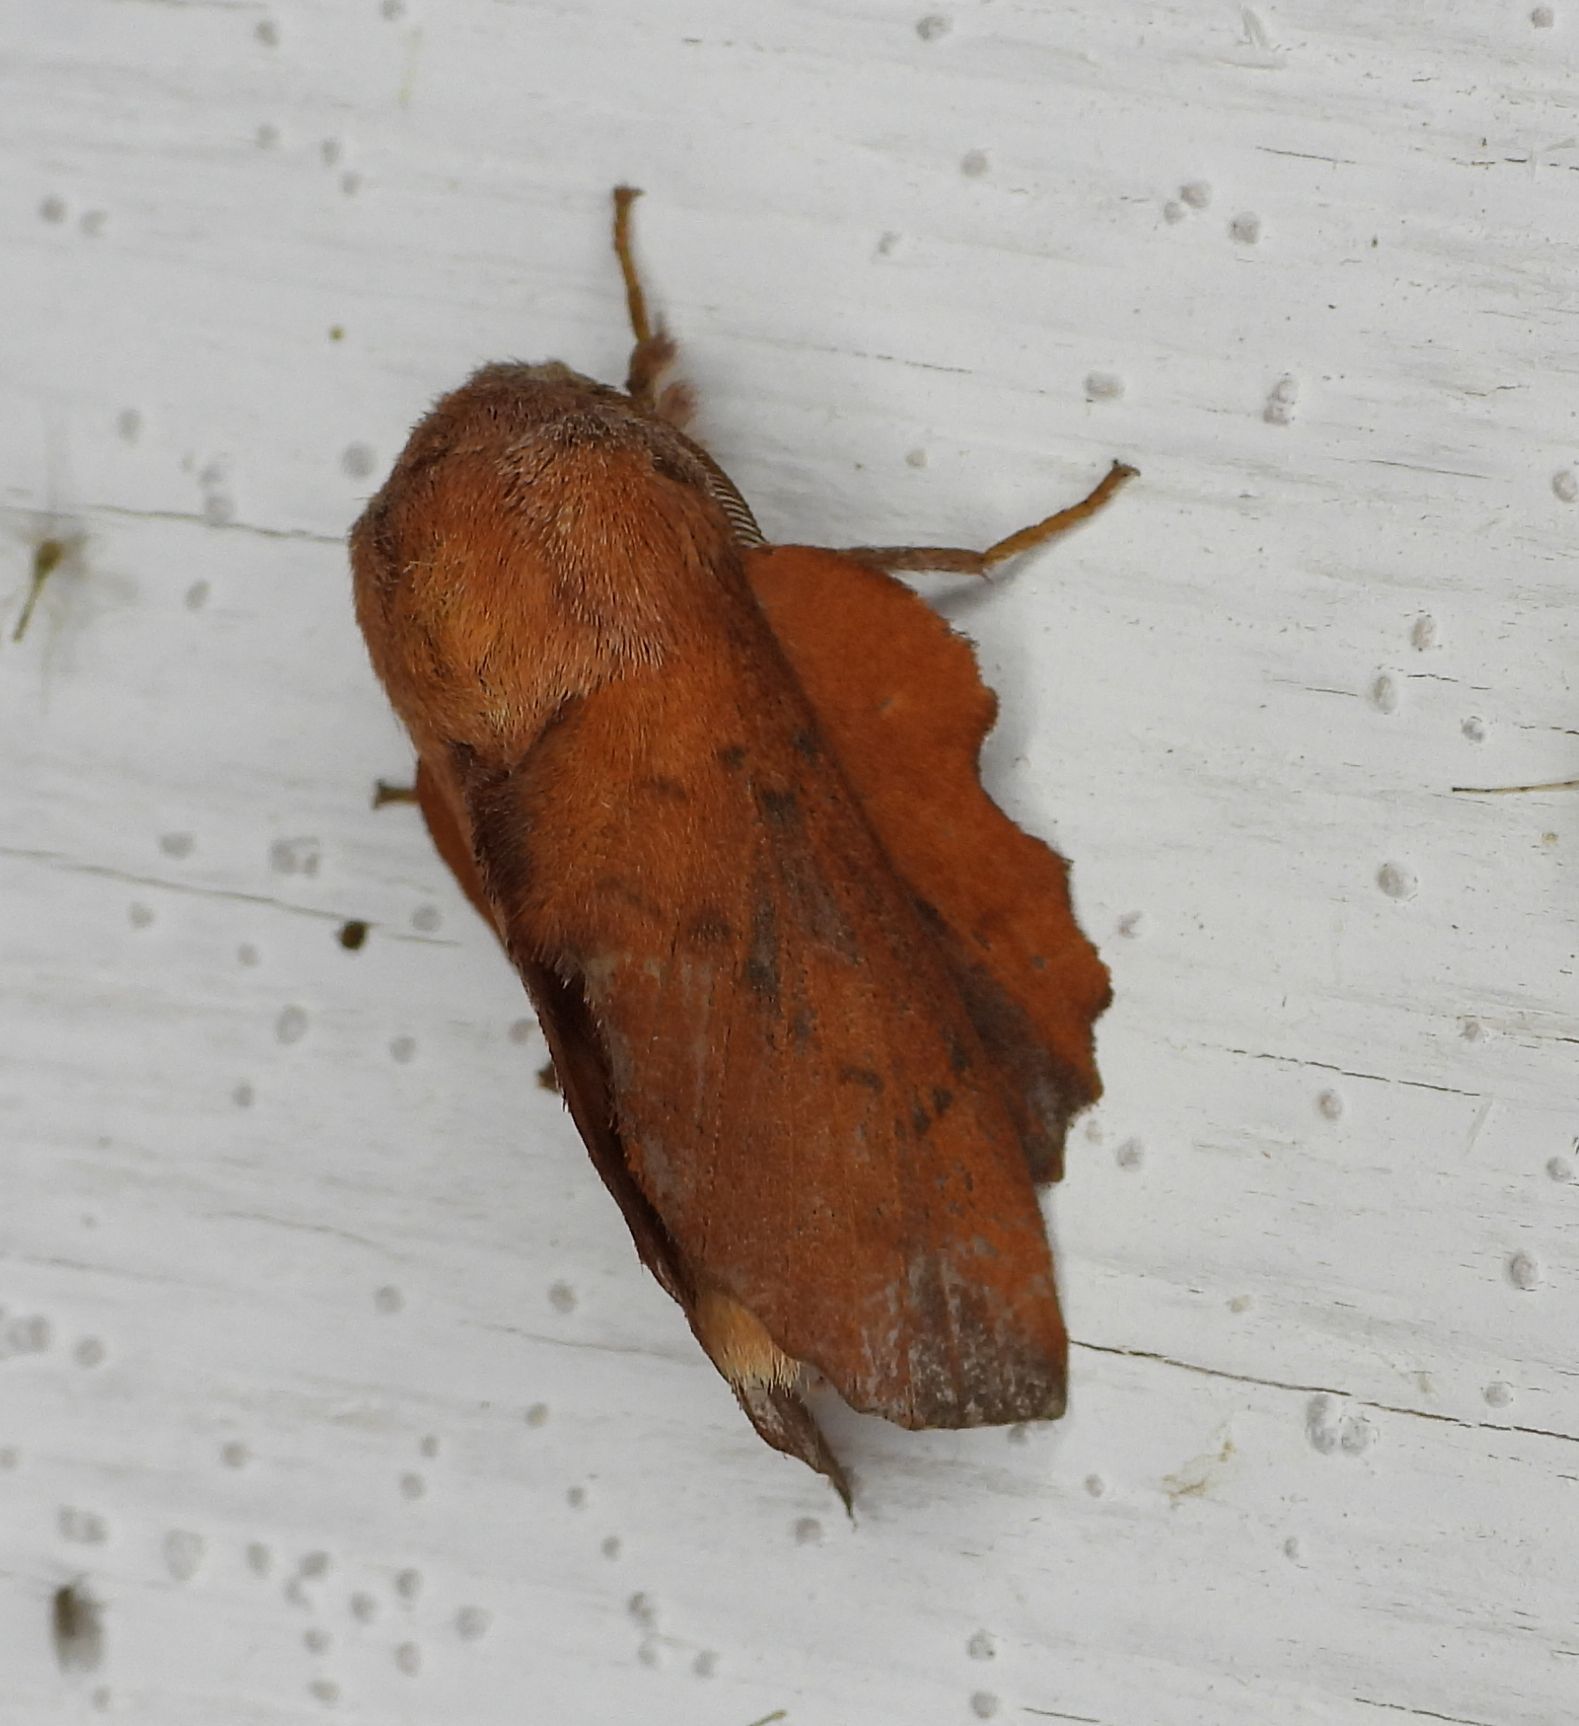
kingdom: Animalia
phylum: Arthropoda
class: Insecta
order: Lepidoptera
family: Lasiocampidae
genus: Phyllodesma
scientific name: Phyllodesma americana
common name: American lappet moth
